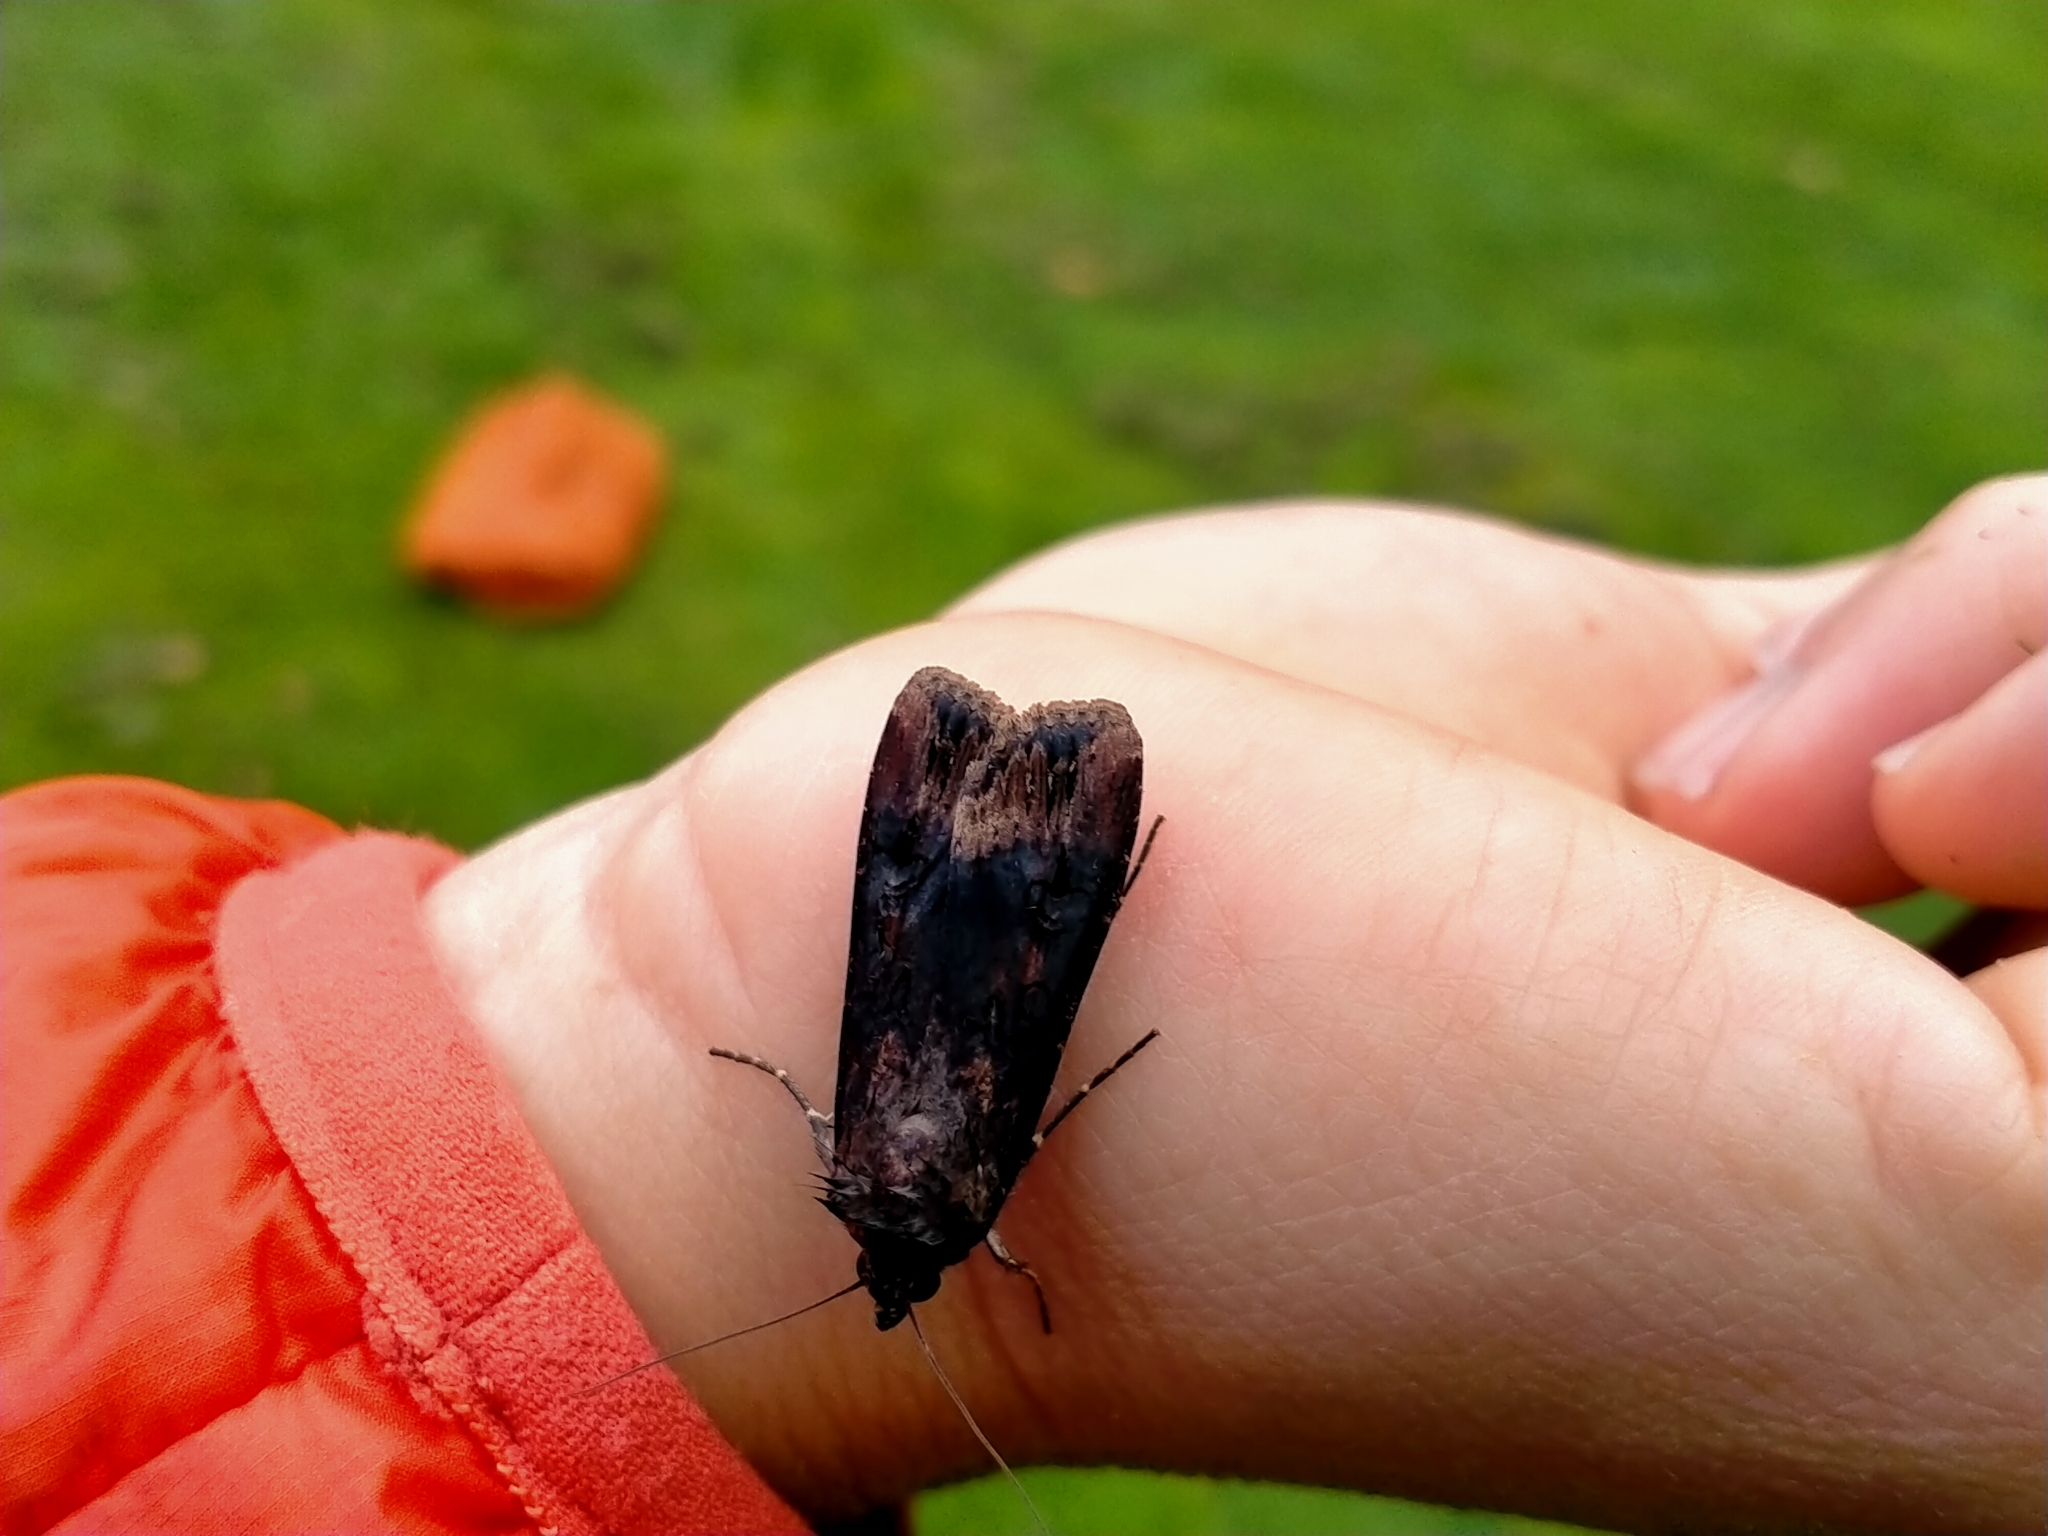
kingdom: Animalia
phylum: Arthropoda
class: Insecta
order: Lepidoptera
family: Noctuidae
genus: Agrotis
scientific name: Agrotis ipsilon
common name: Dark sword-grass
